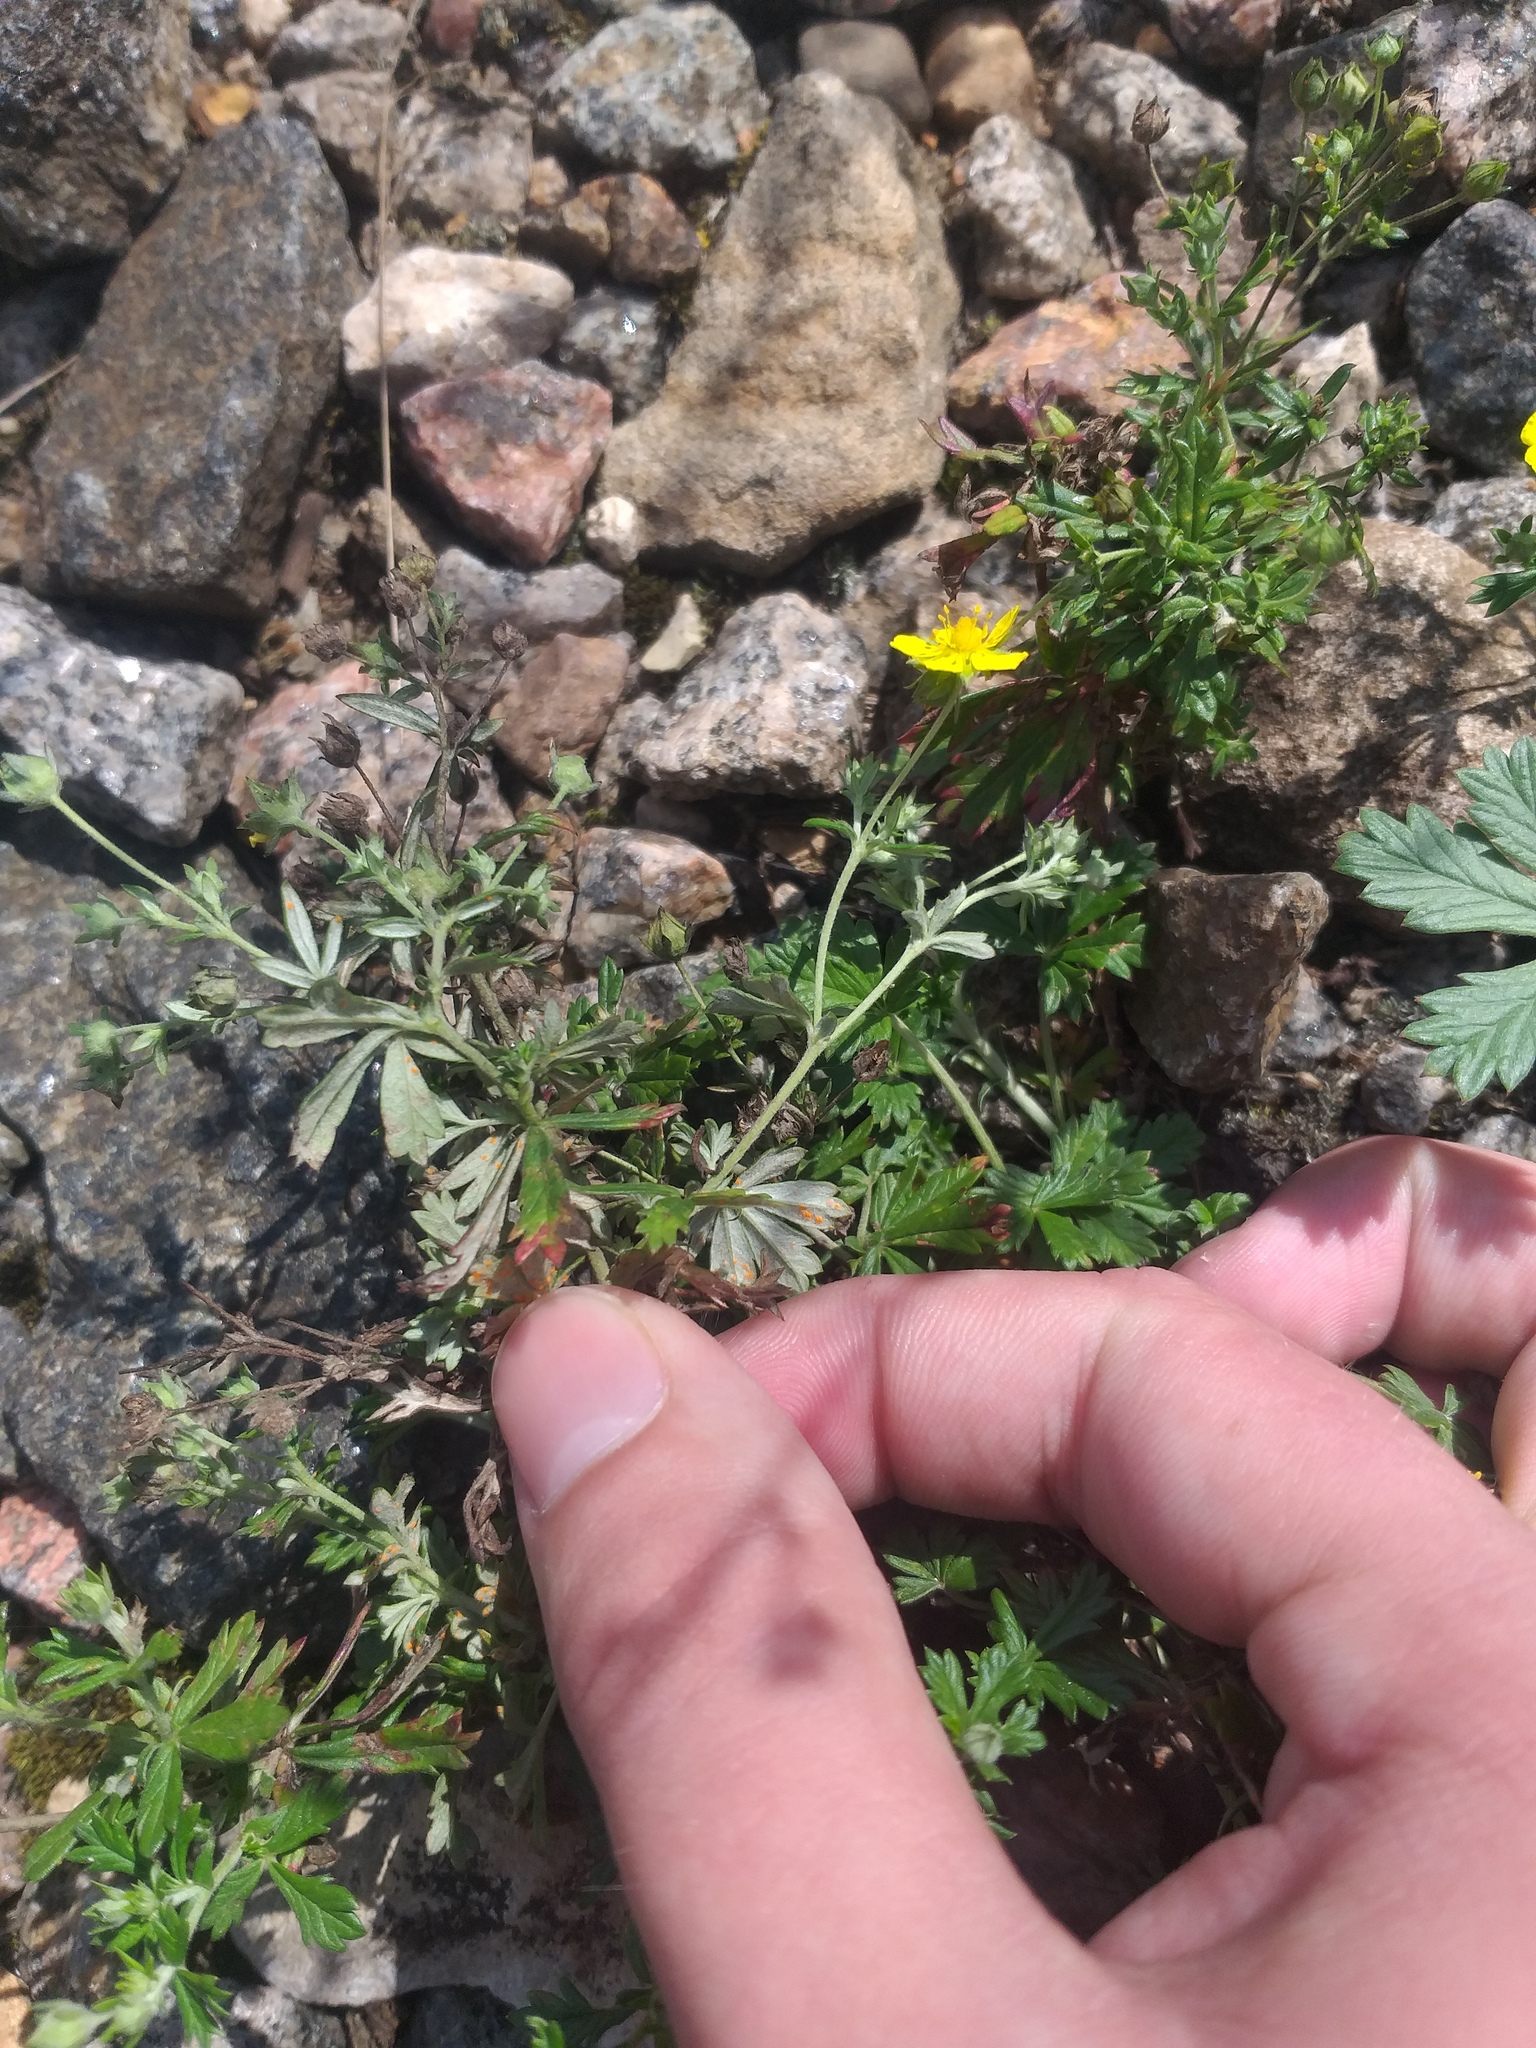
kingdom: Plantae
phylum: Tracheophyta
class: Magnoliopsida
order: Rosales
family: Rosaceae
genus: Potentilla
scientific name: Potentilla argentea
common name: Hoary cinquefoil
